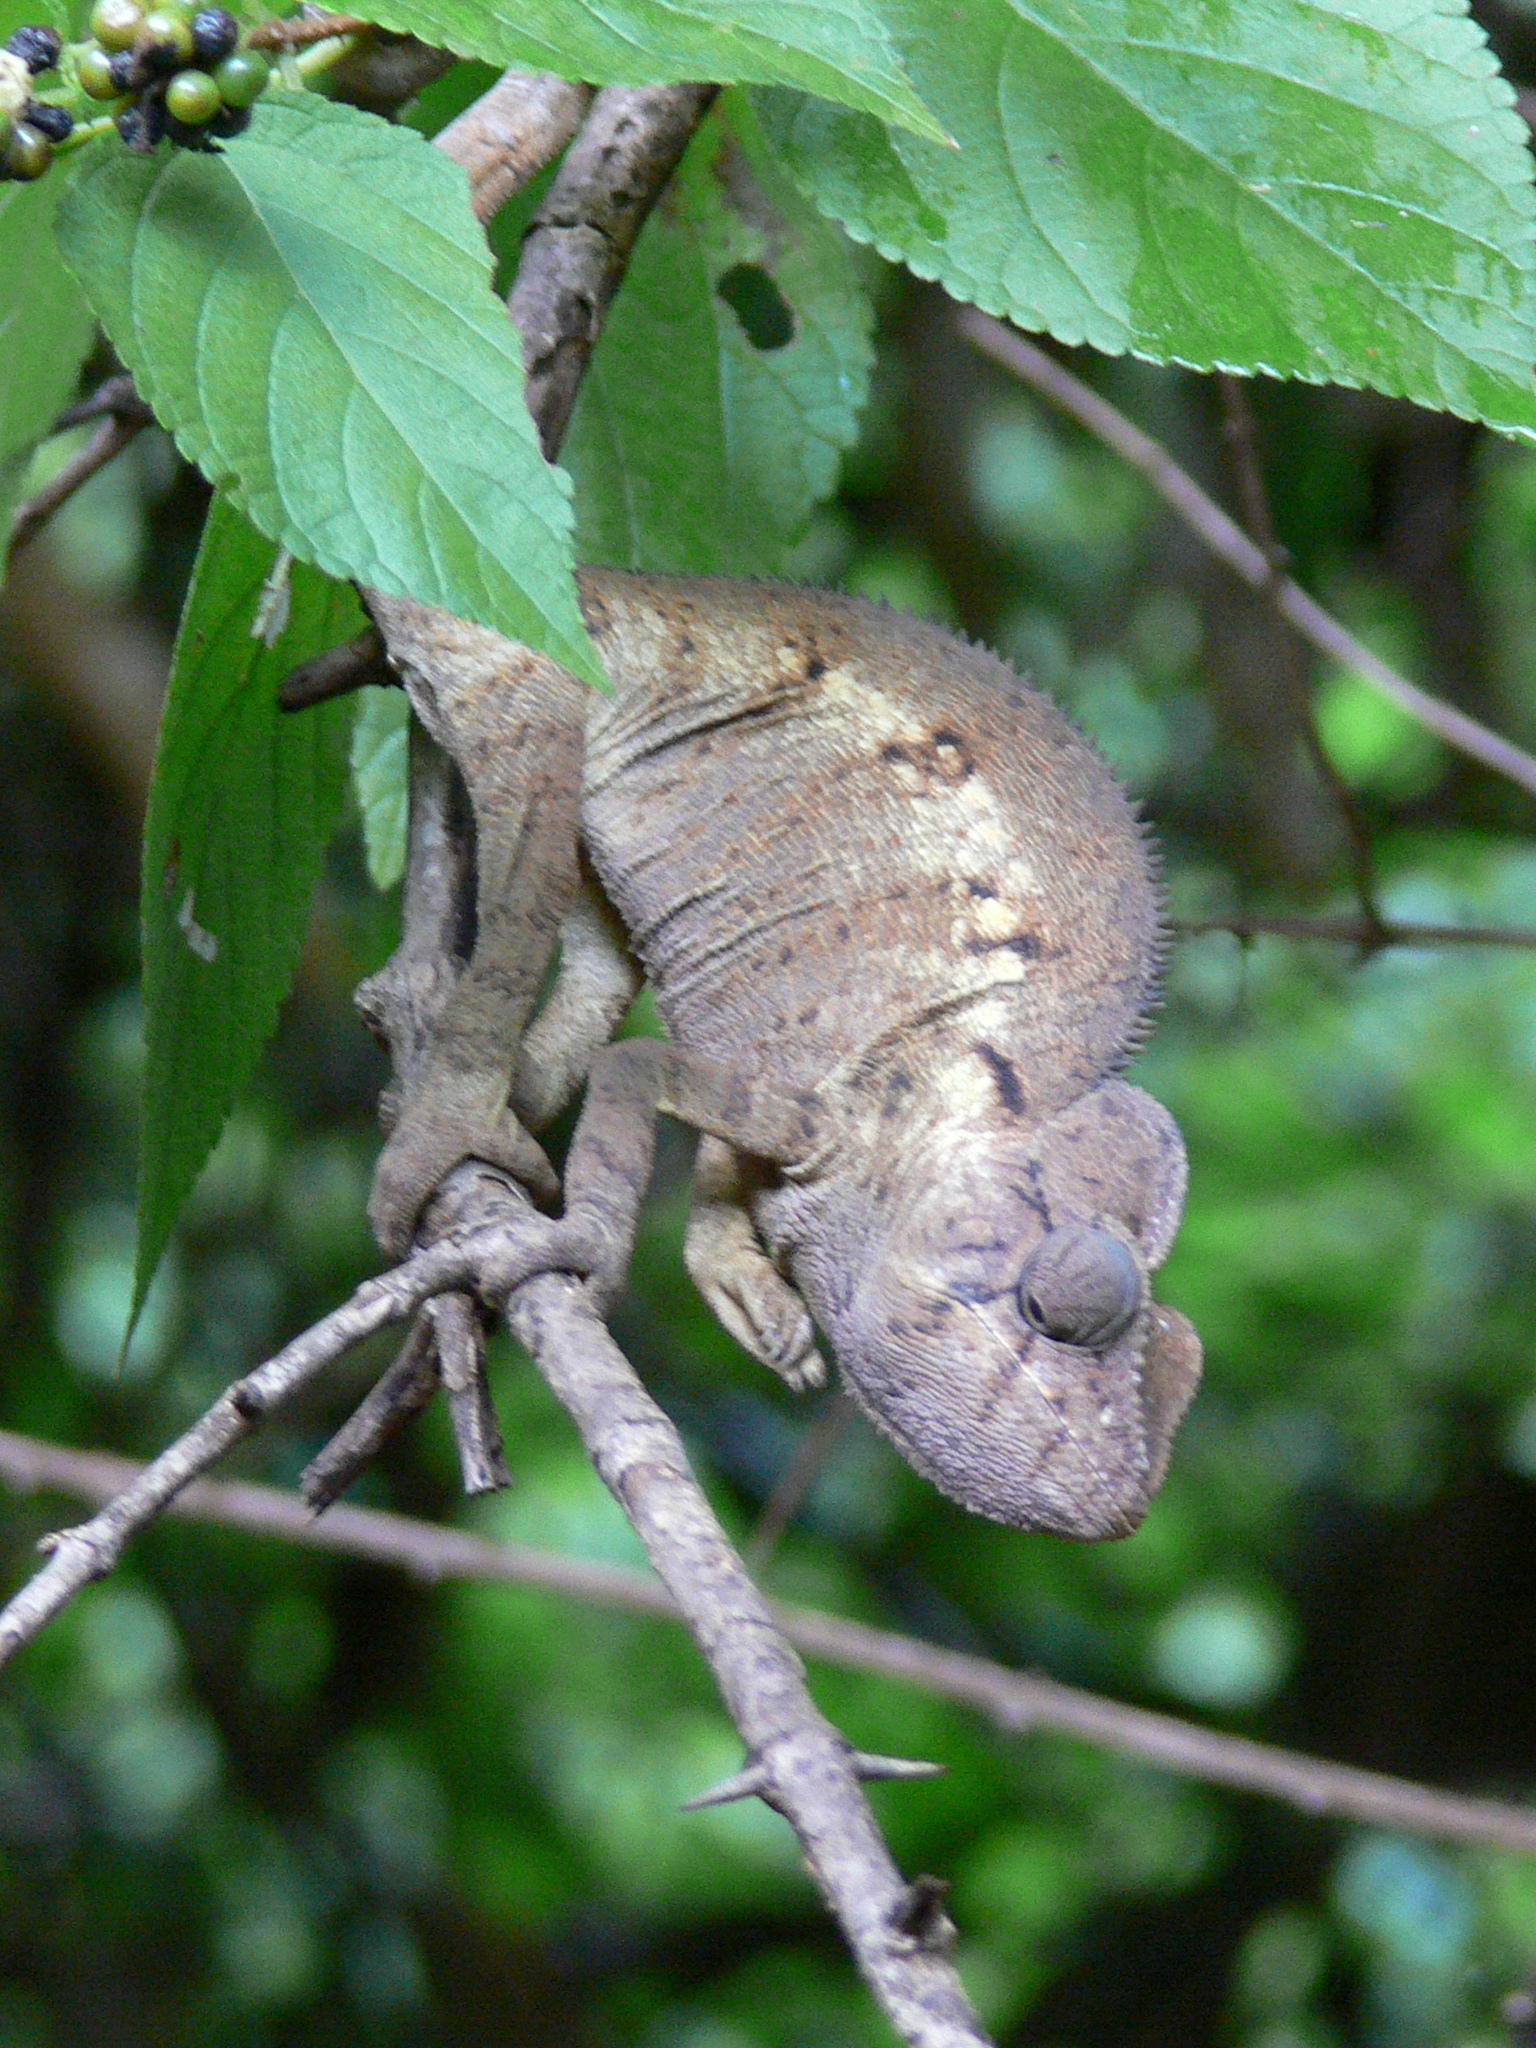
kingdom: Animalia
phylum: Chordata
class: Squamata
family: Chamaeleonidae
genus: Furcifer
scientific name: Furcifer oustaleti
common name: Oustalet's chameleon
